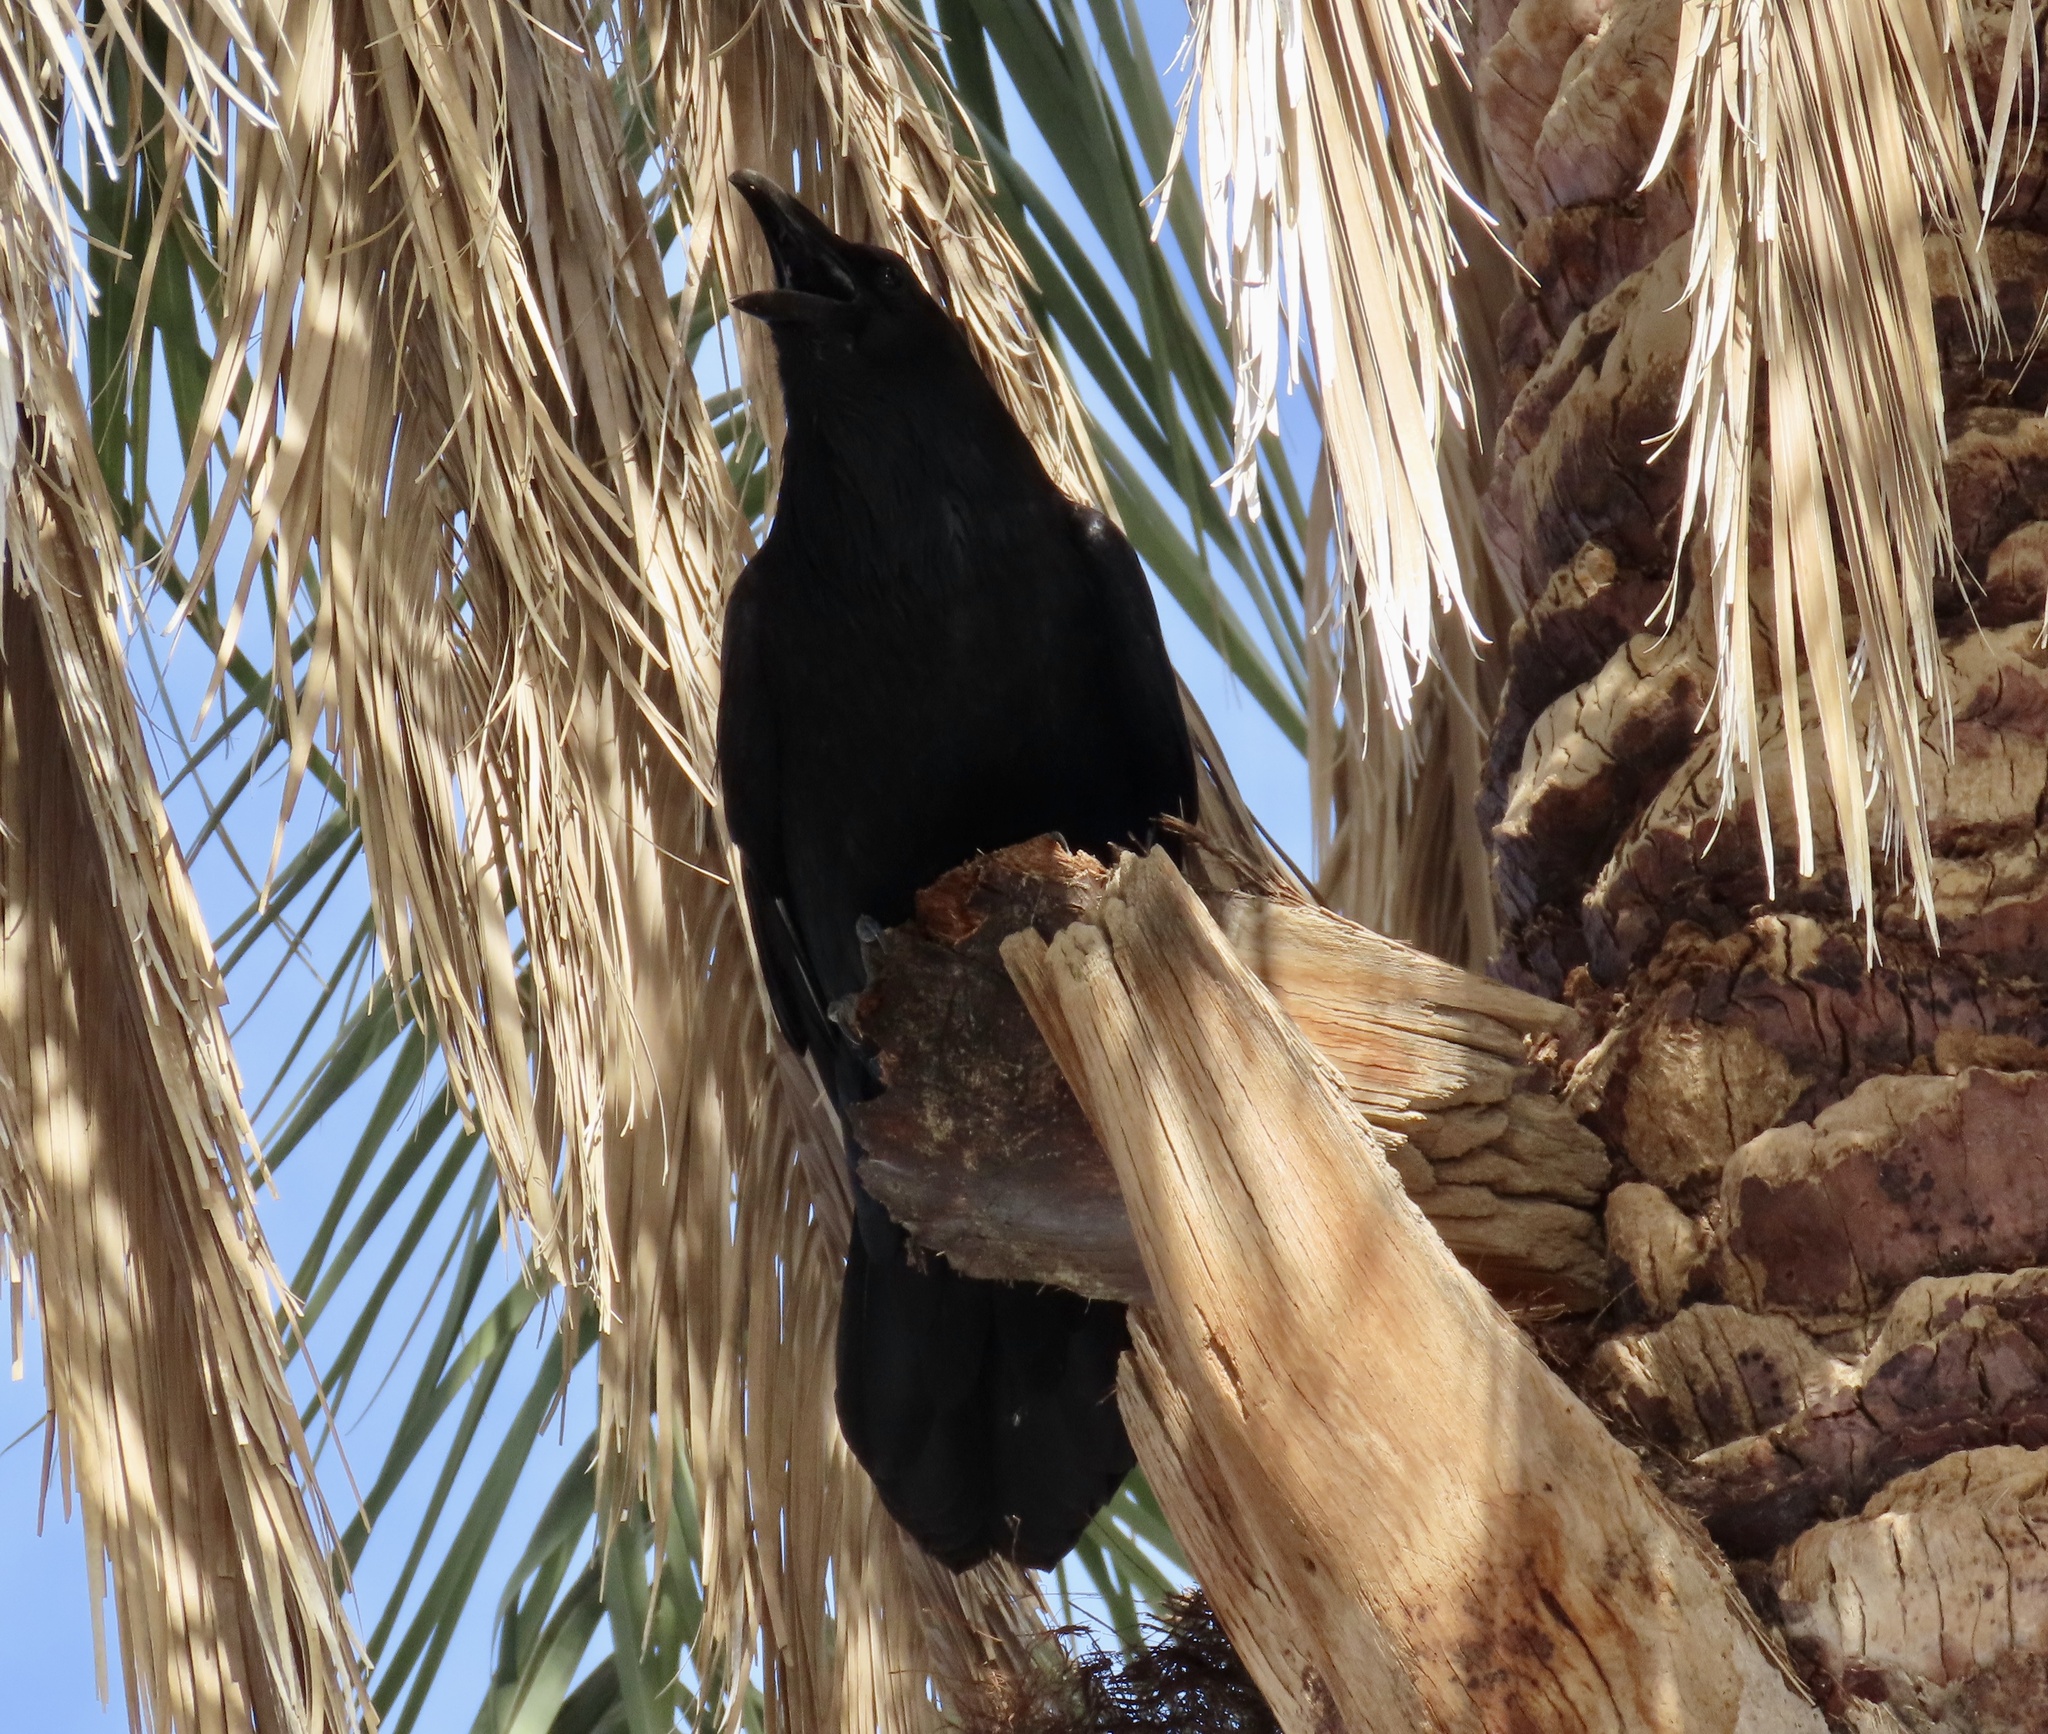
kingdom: Animalia
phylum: Chordata
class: Aves
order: Passeriformes
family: Corvidae
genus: Corvus
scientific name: Corvus corax
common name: Common raven
